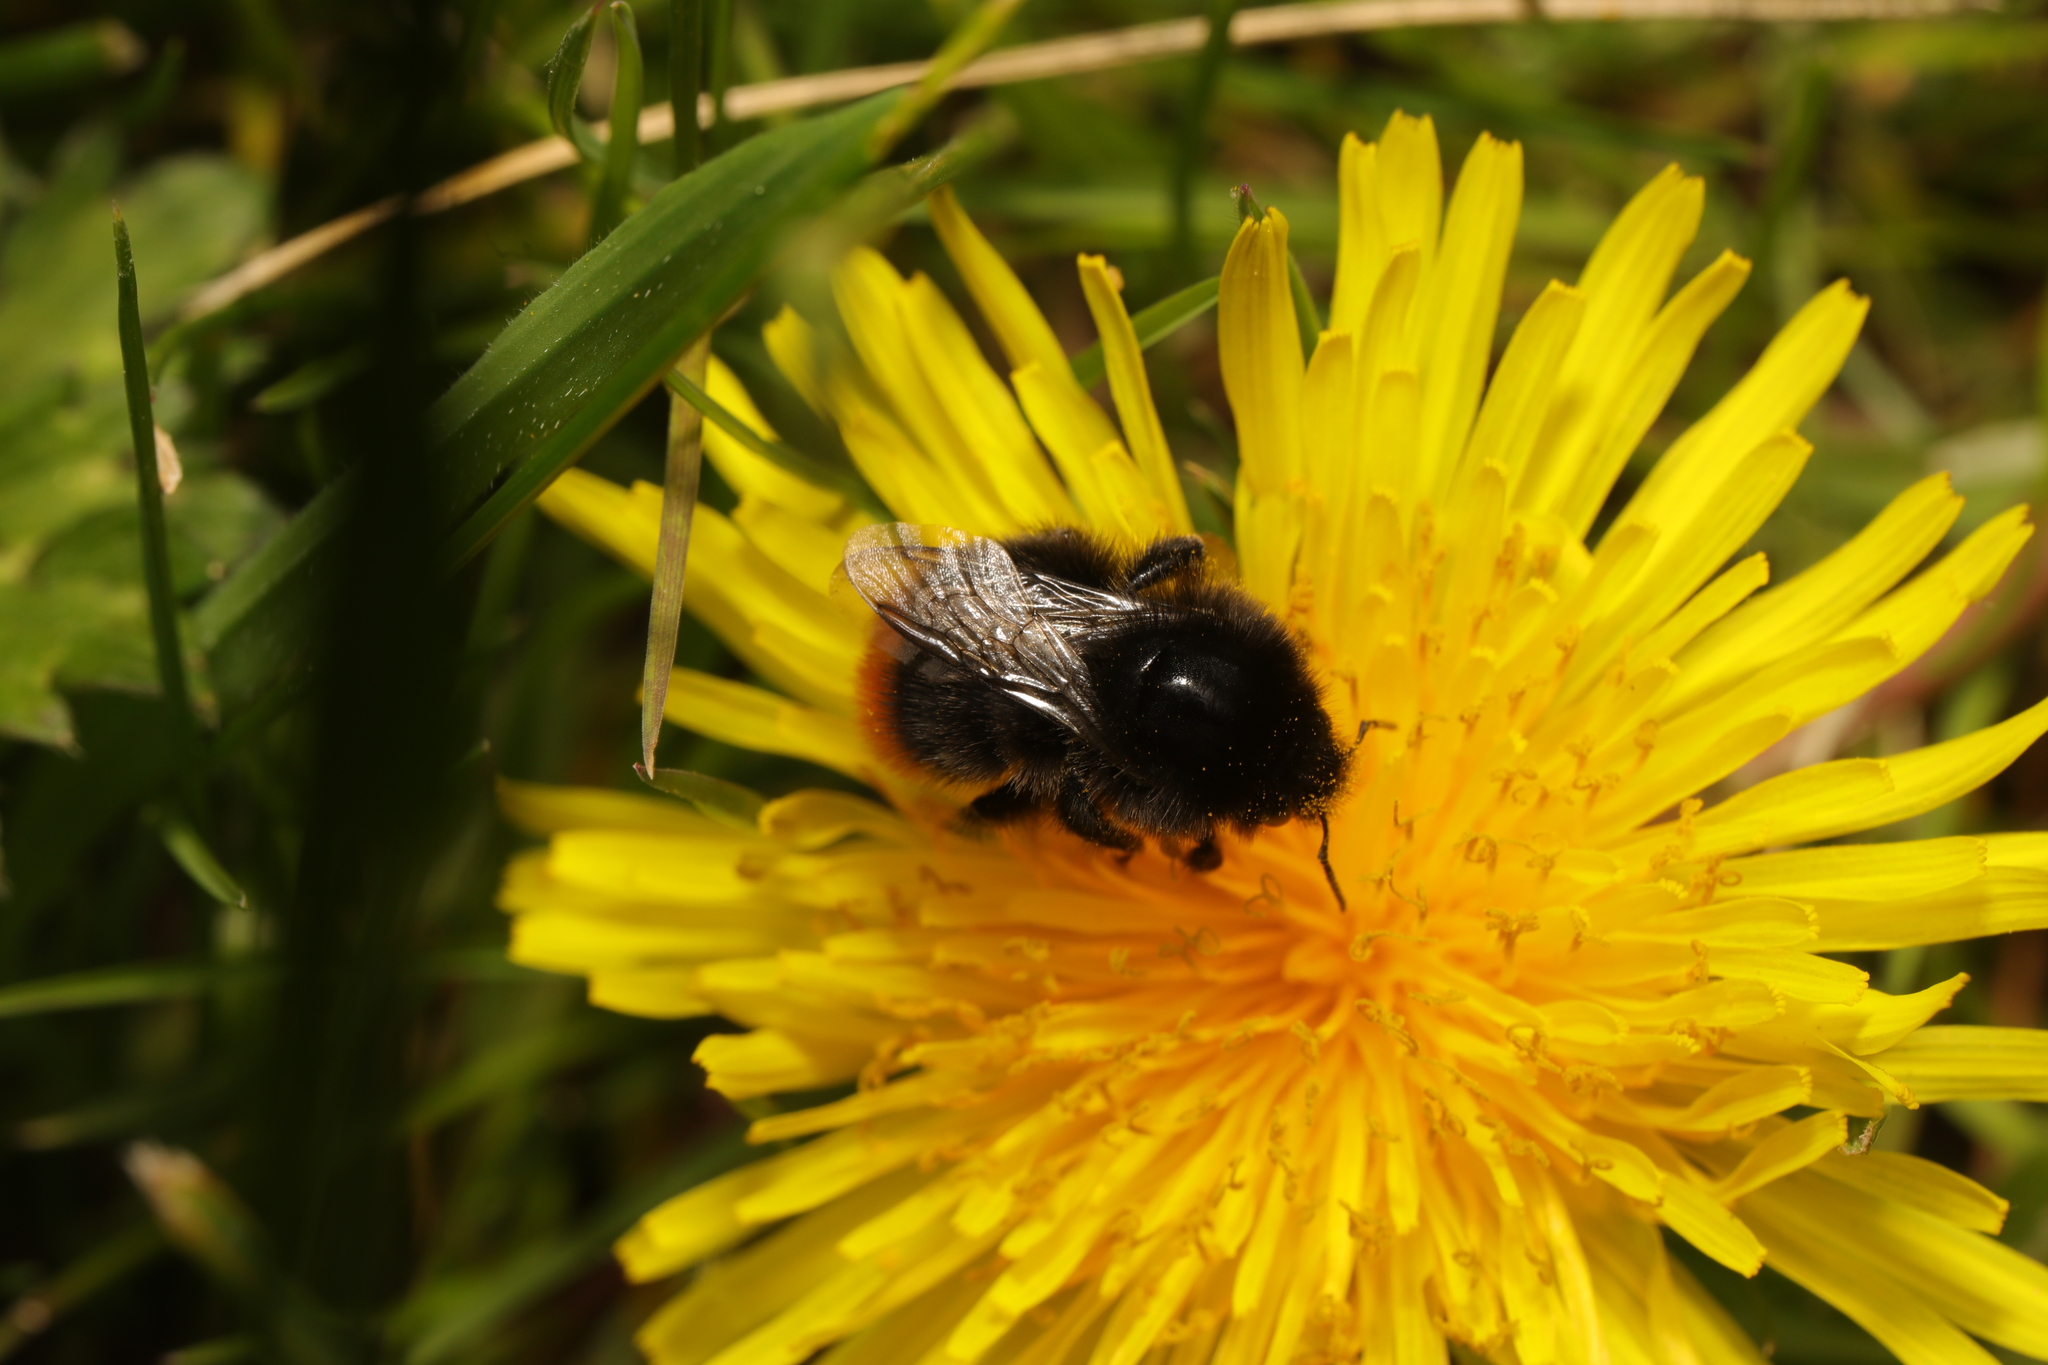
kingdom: Animalia
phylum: Arthropoda
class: Insecta
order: Hymenoptera
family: Apidae
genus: Bombus
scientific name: Bombus lapidarius
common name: Large red-tailed humble-bee
